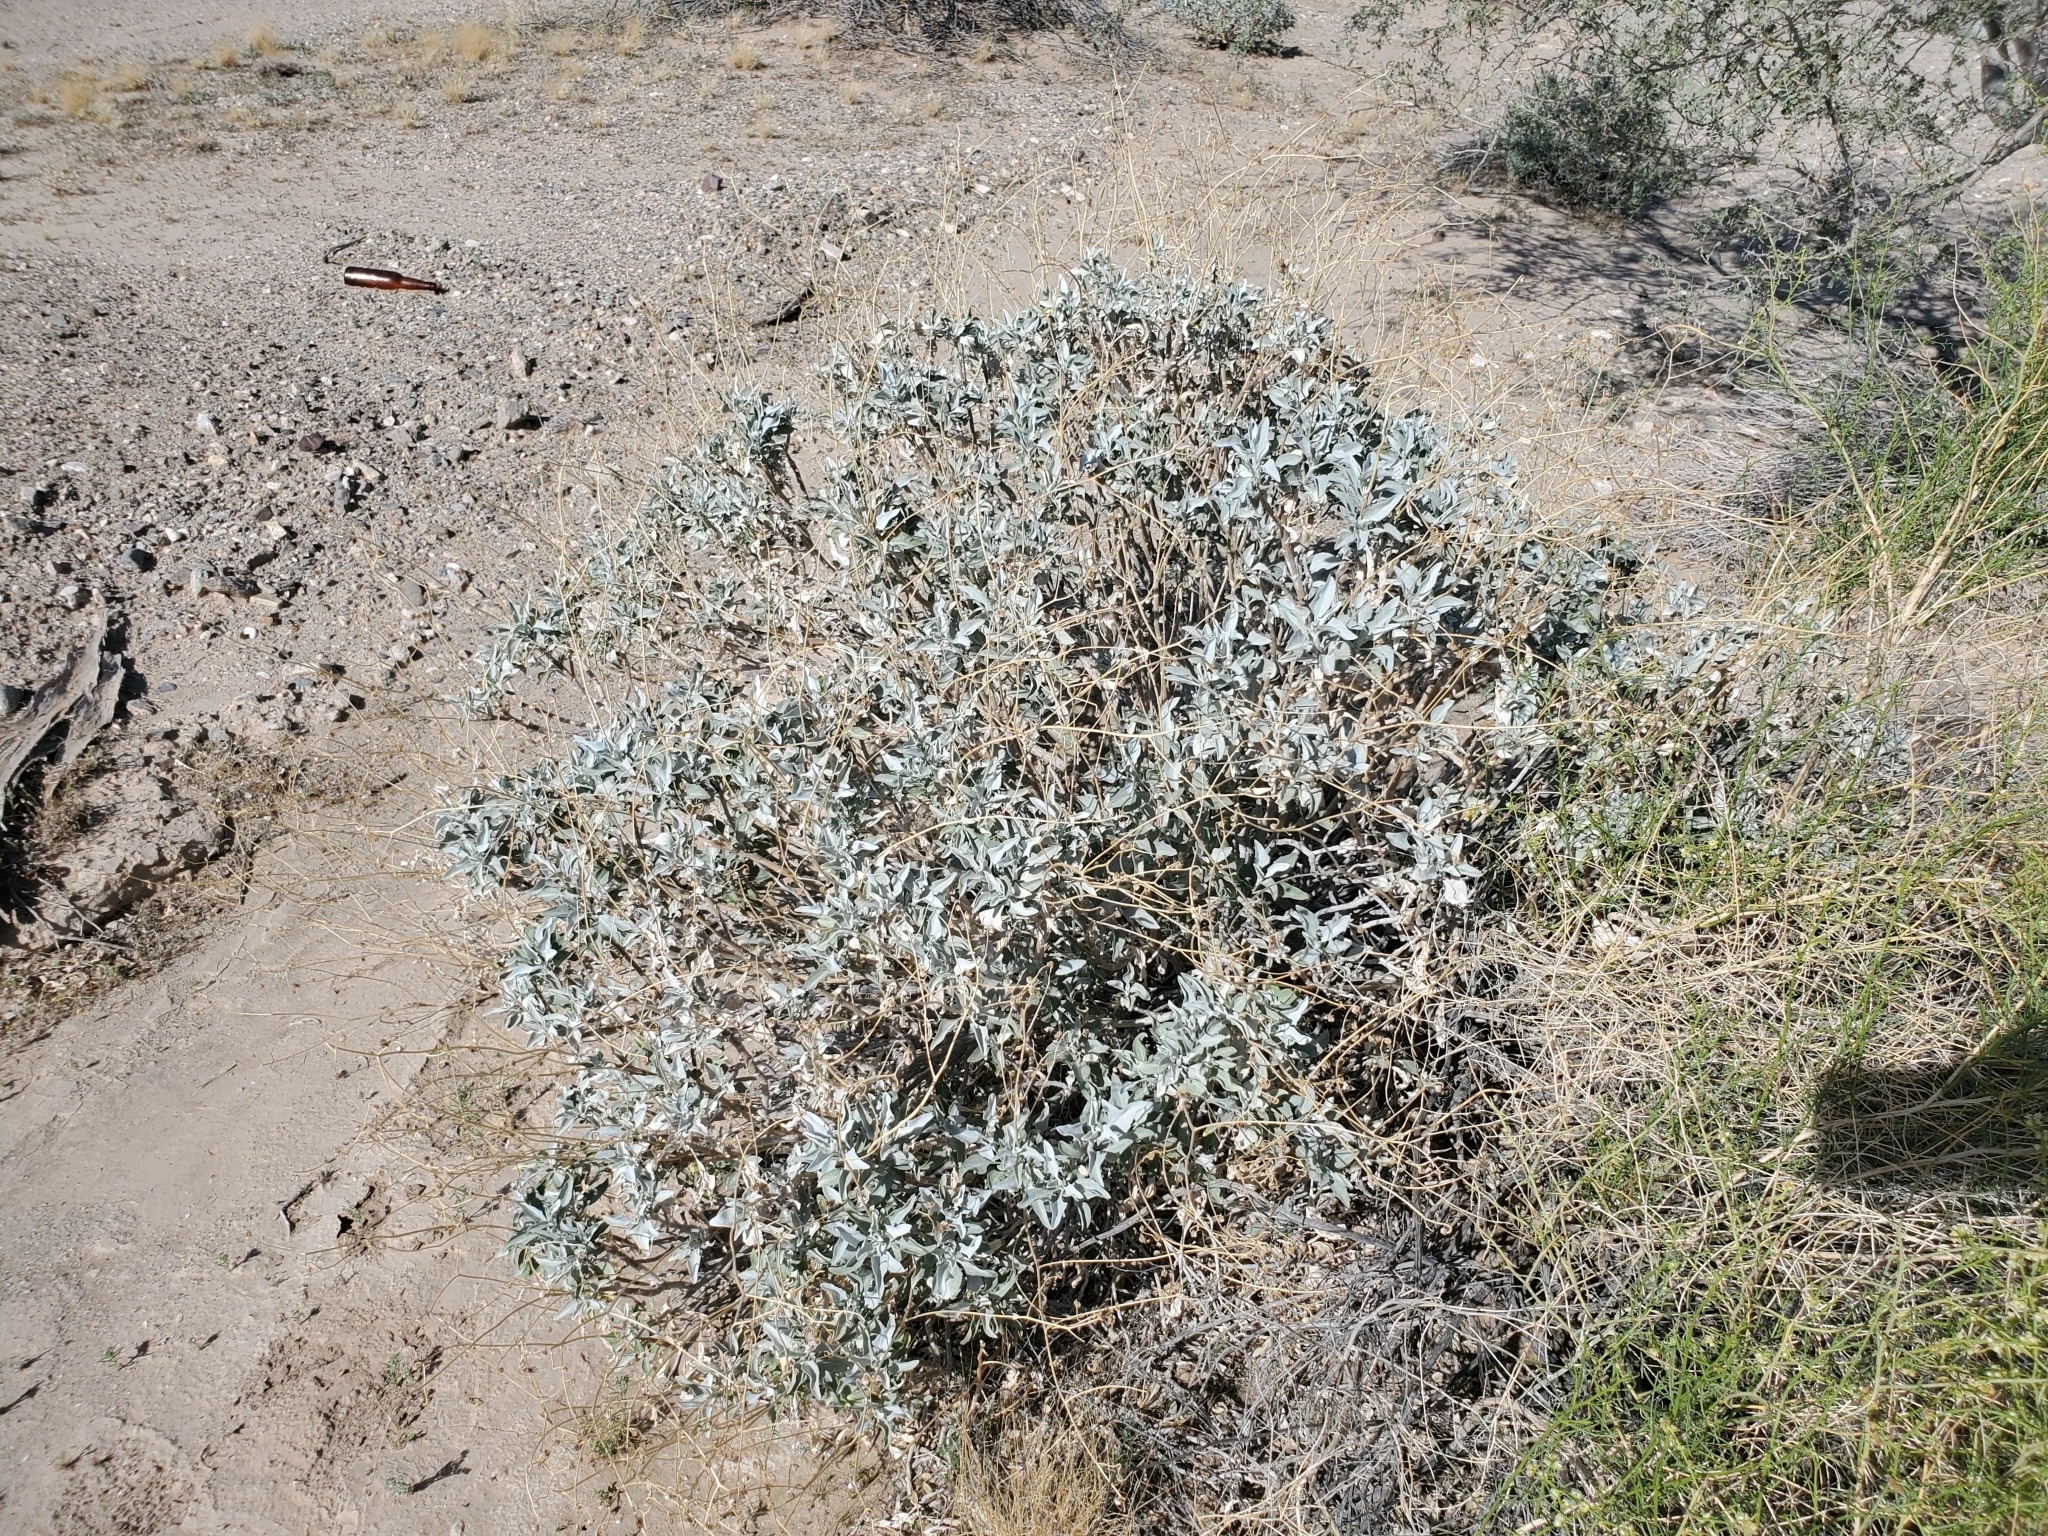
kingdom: Plantae
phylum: Tracheophyta
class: Magnoliopsida
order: Asterales
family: Asteraceae
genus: Encelia
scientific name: Encelia farinosa
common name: Brittlebush
